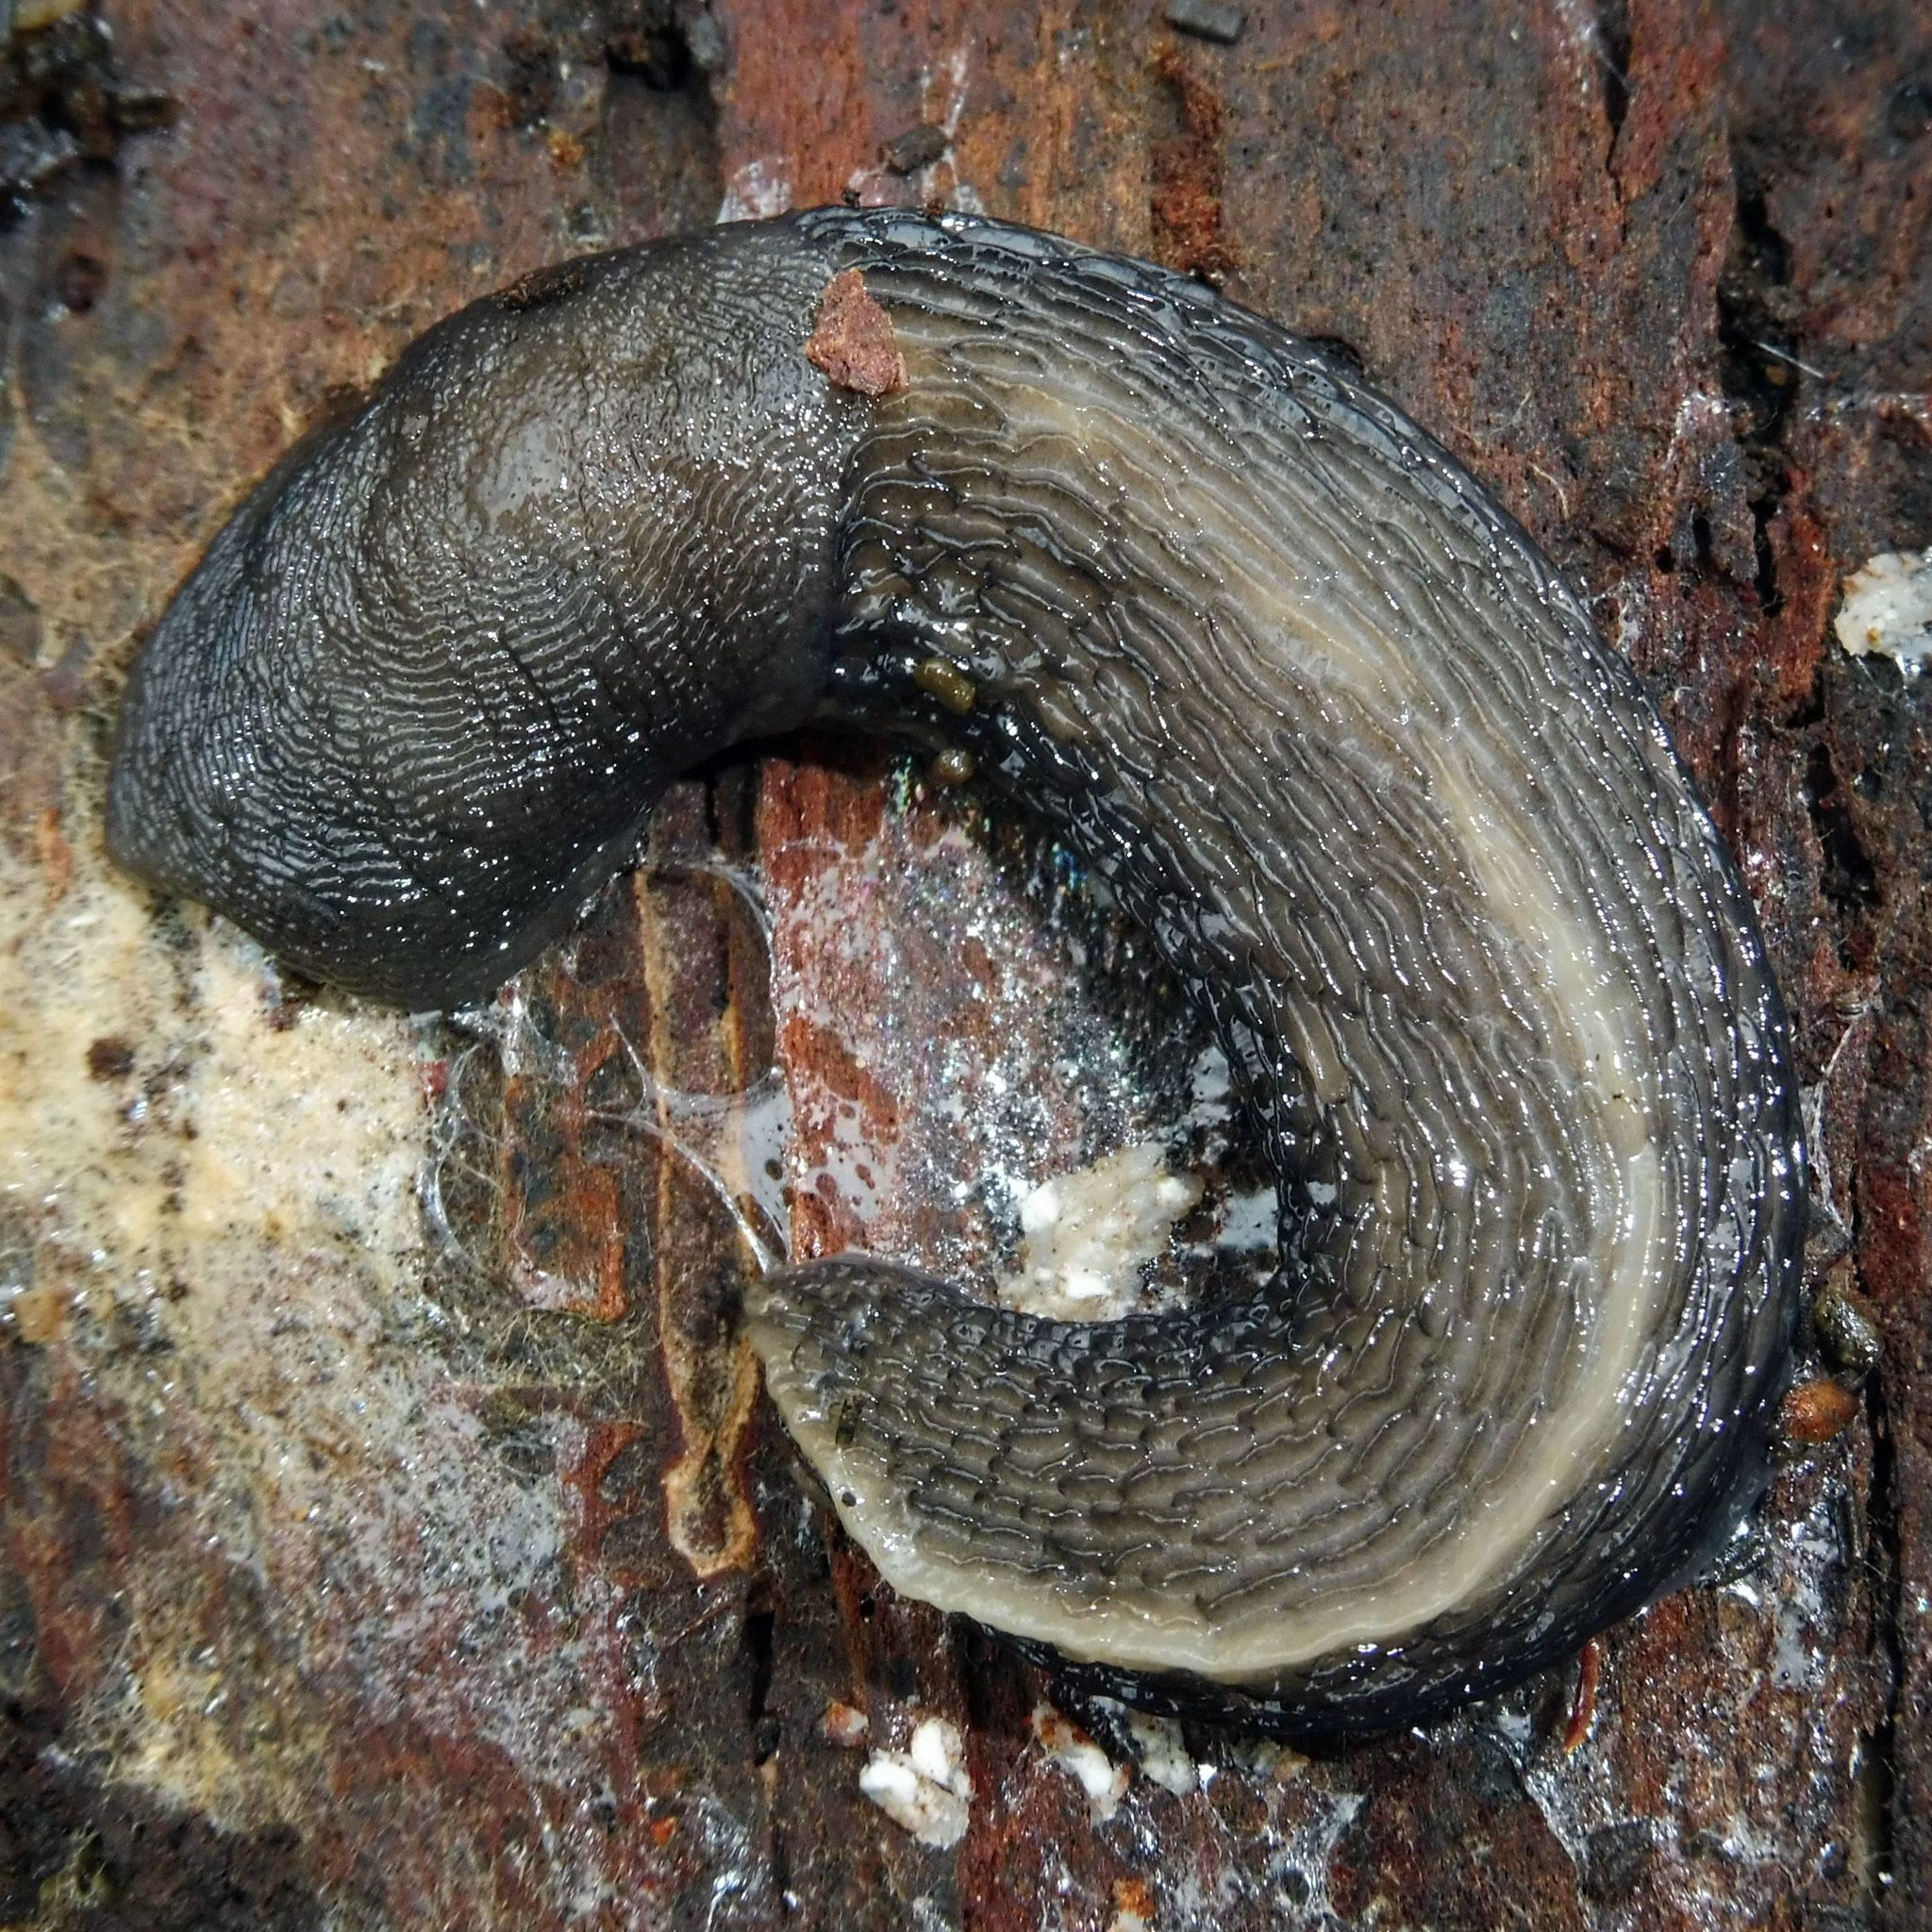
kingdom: Animalia
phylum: Mollusca
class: Gastropoda
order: Stylommatophora
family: Limacidae
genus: Limax
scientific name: Limax cinereoniger
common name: Ash-black slug
